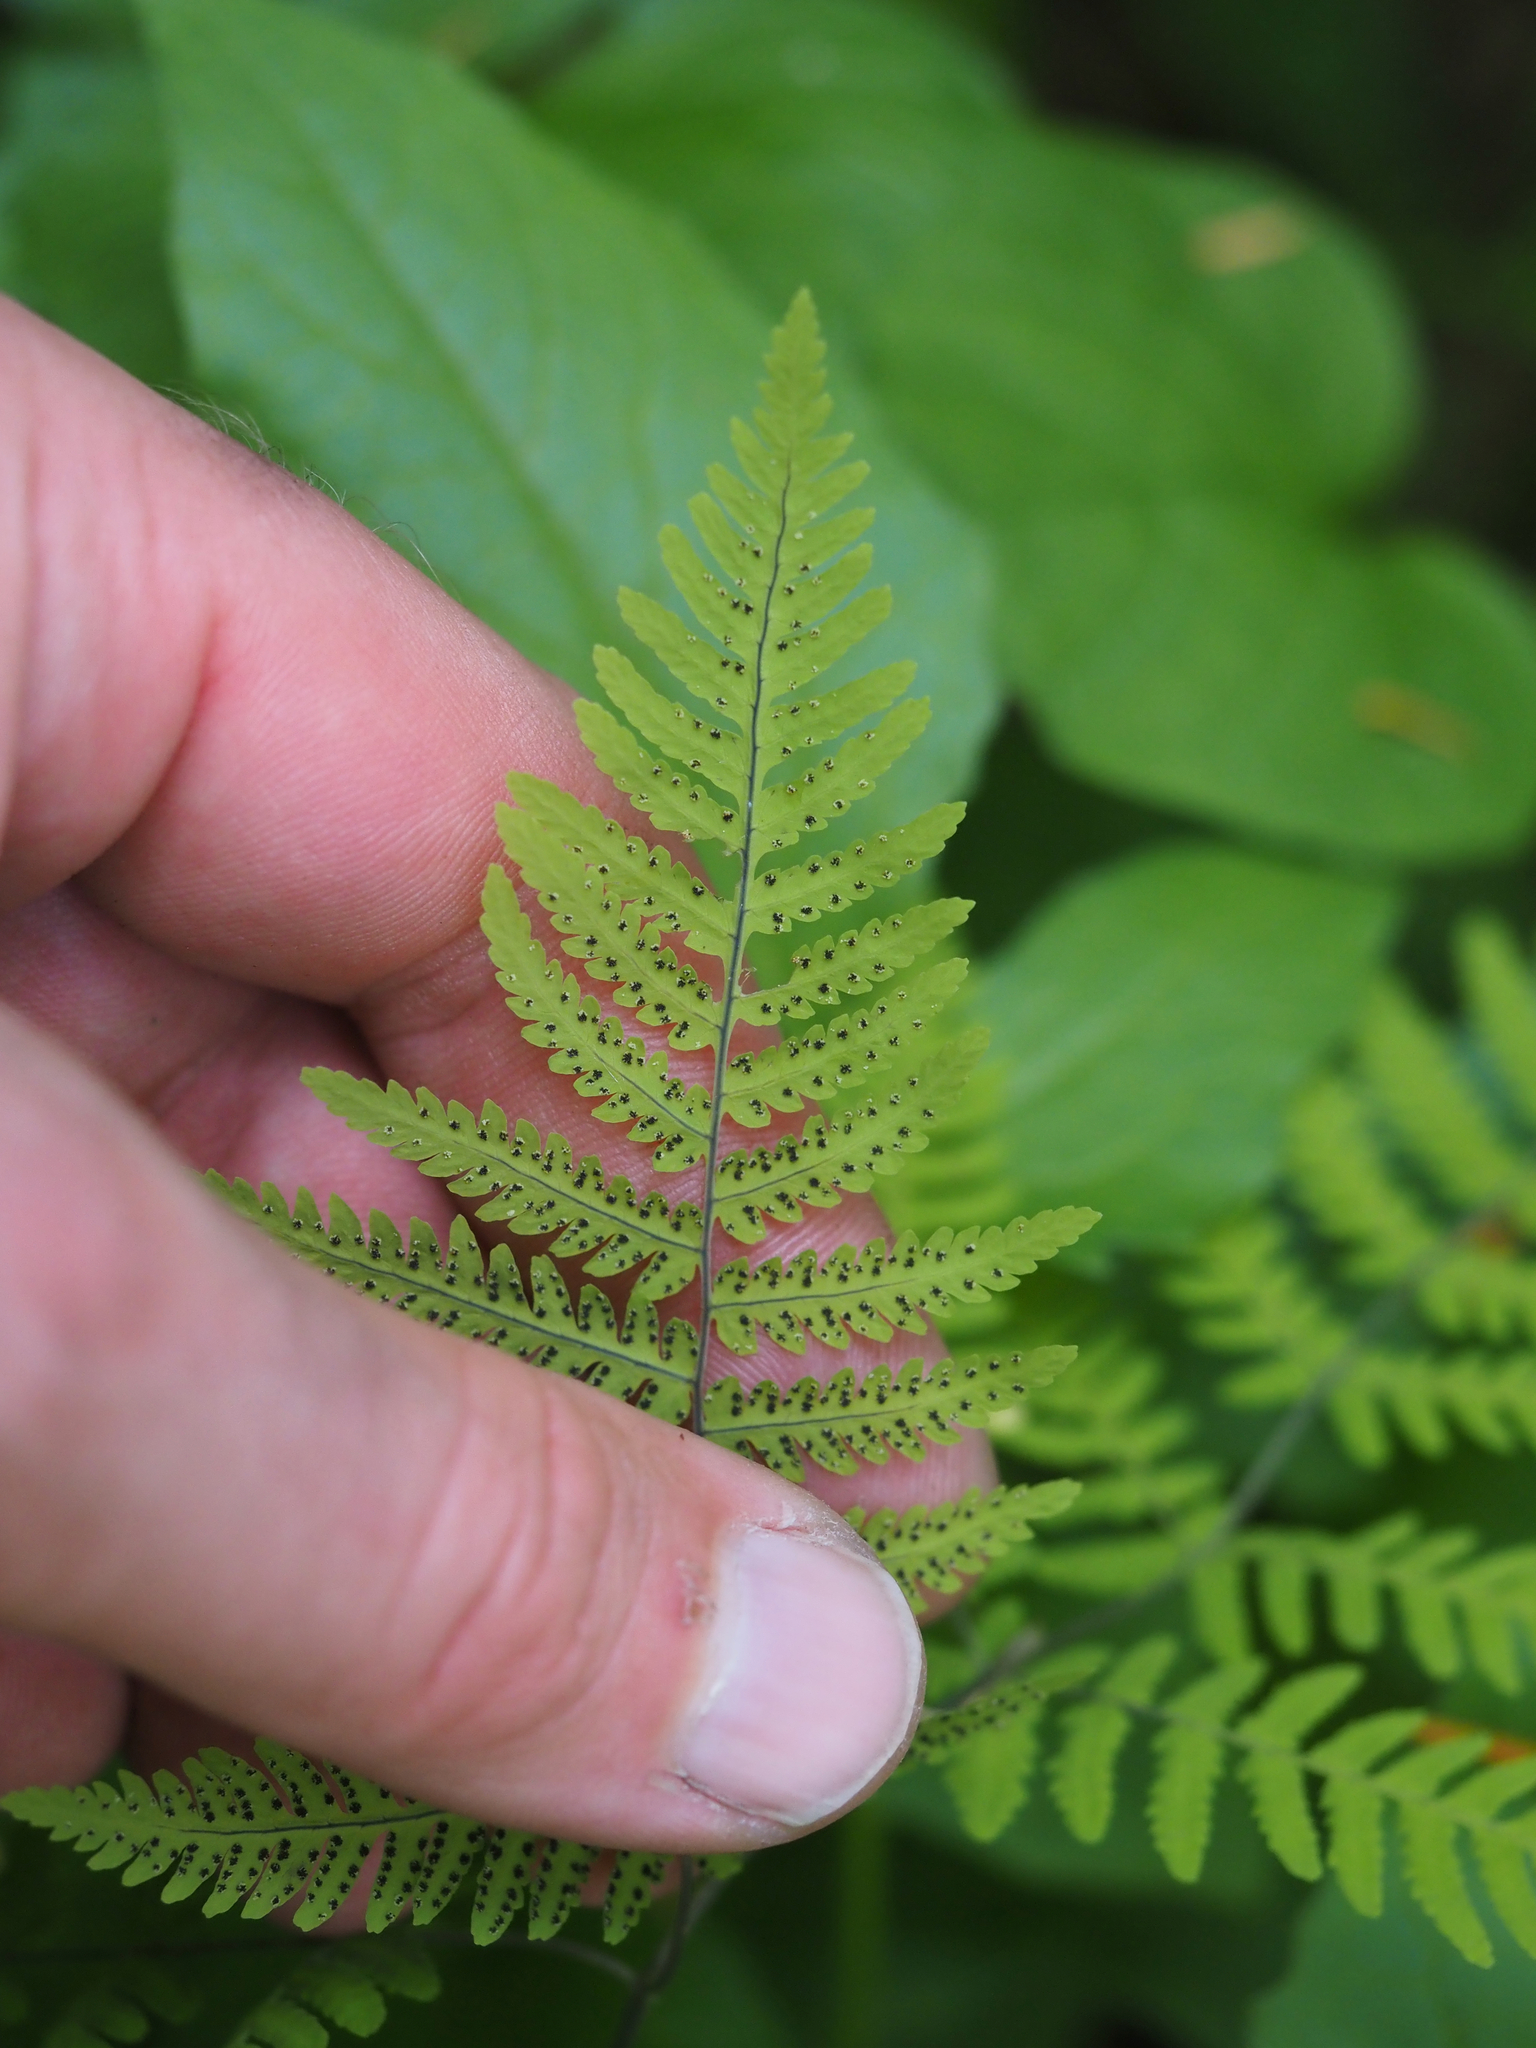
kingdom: Plantae
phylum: Tracheophyta
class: Polypodiopsida
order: Polypodiales
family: Cystopteridaceae
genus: Gymnocarpium
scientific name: Gymnocarpium disjunctum
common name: Western oak fern
